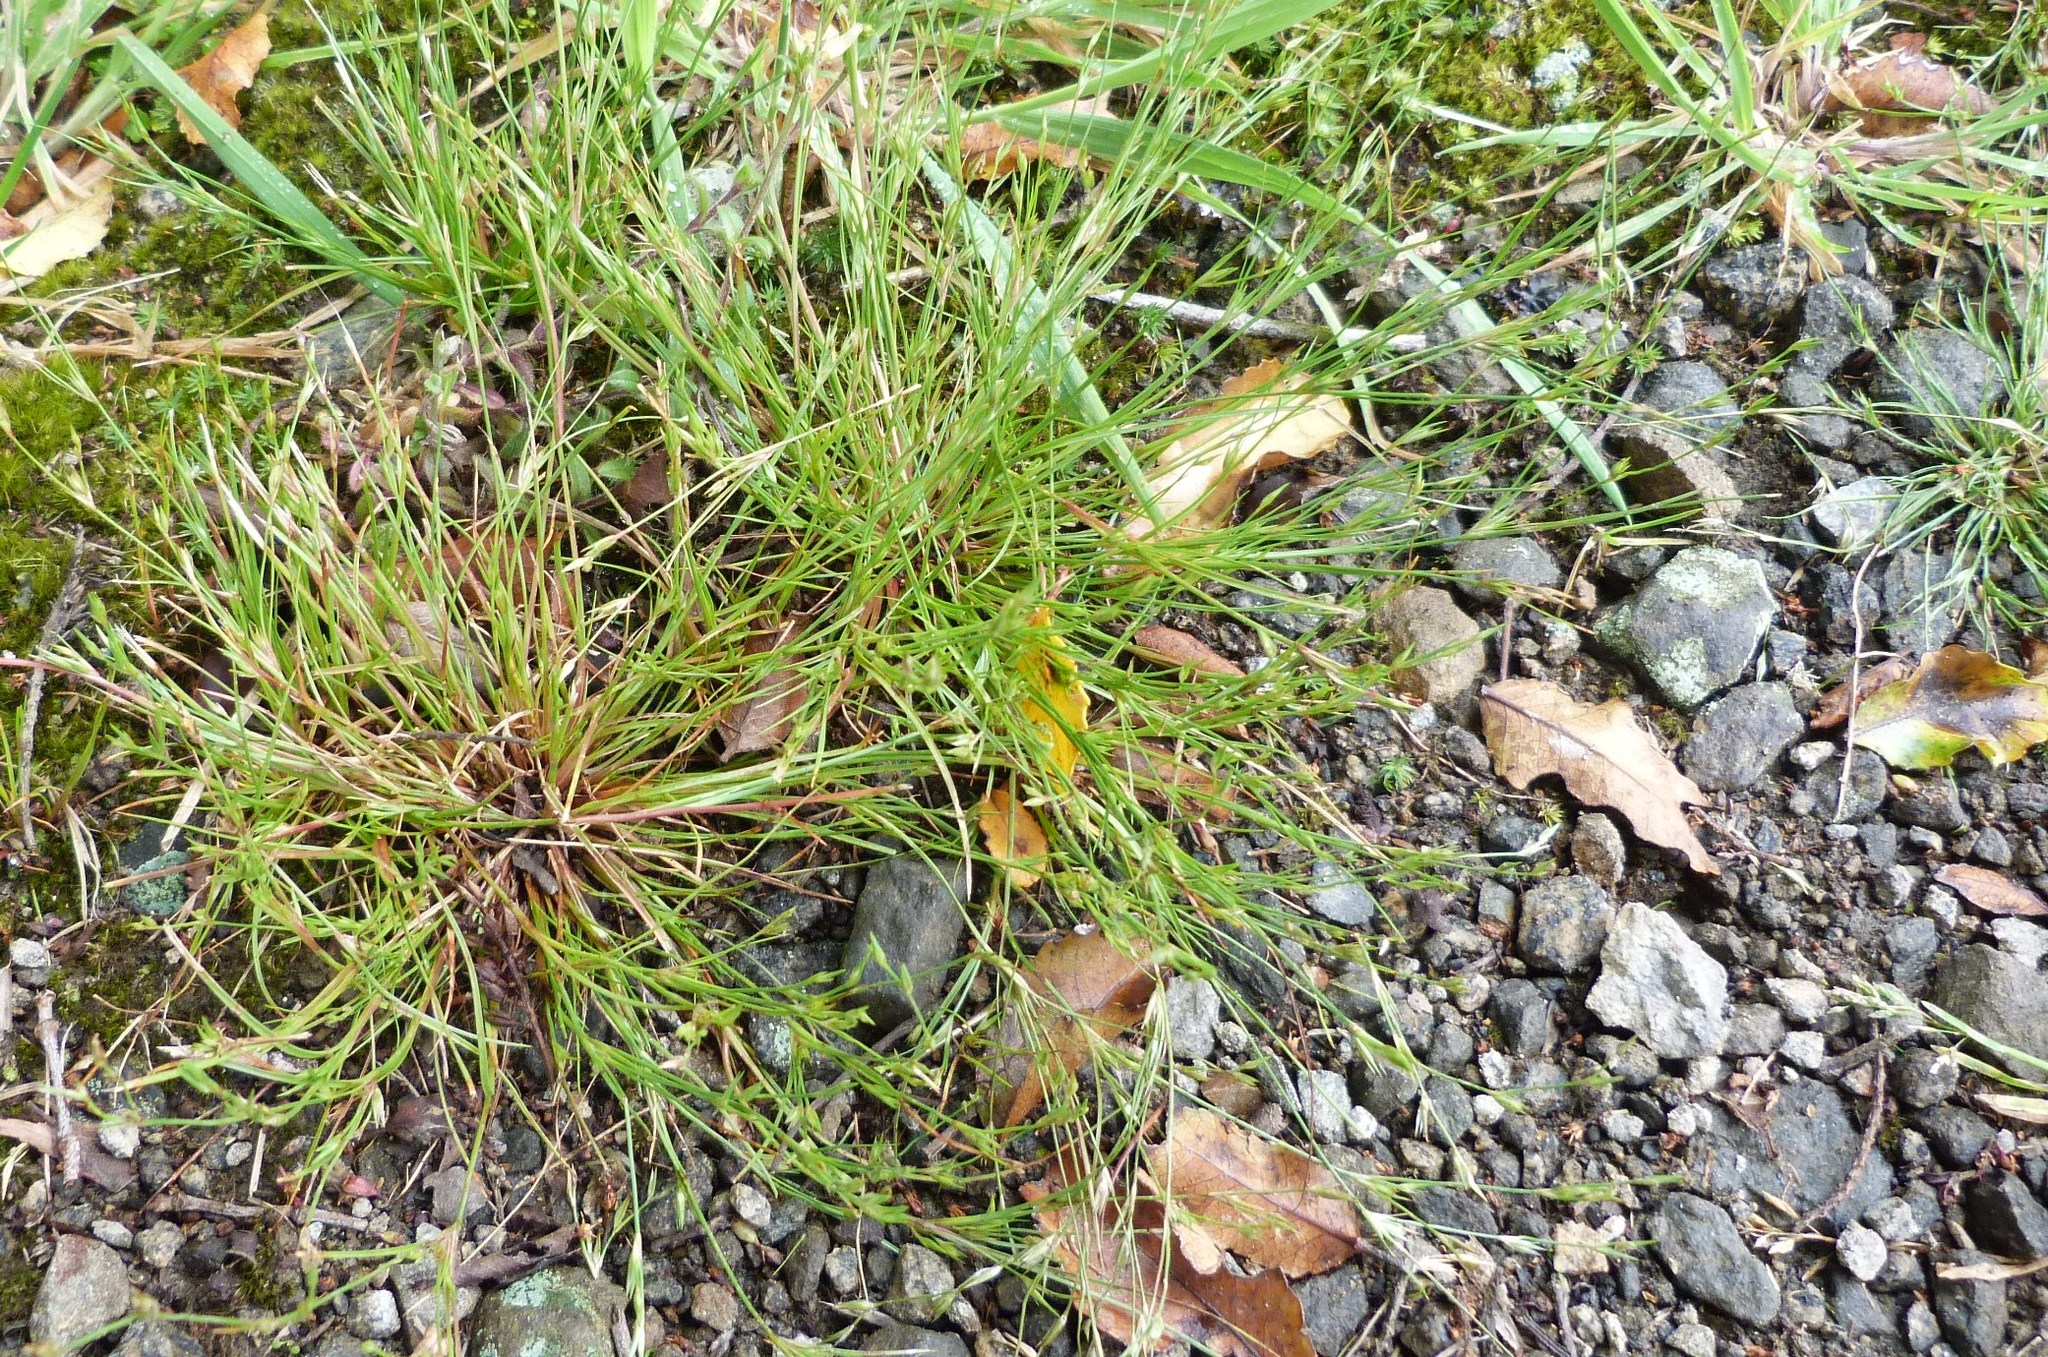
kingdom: Plantae
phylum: Tracheophyta
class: Liliopsida
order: Poales
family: Juncaceae
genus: Juncus
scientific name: Juncus bufonius
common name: Toad rush
